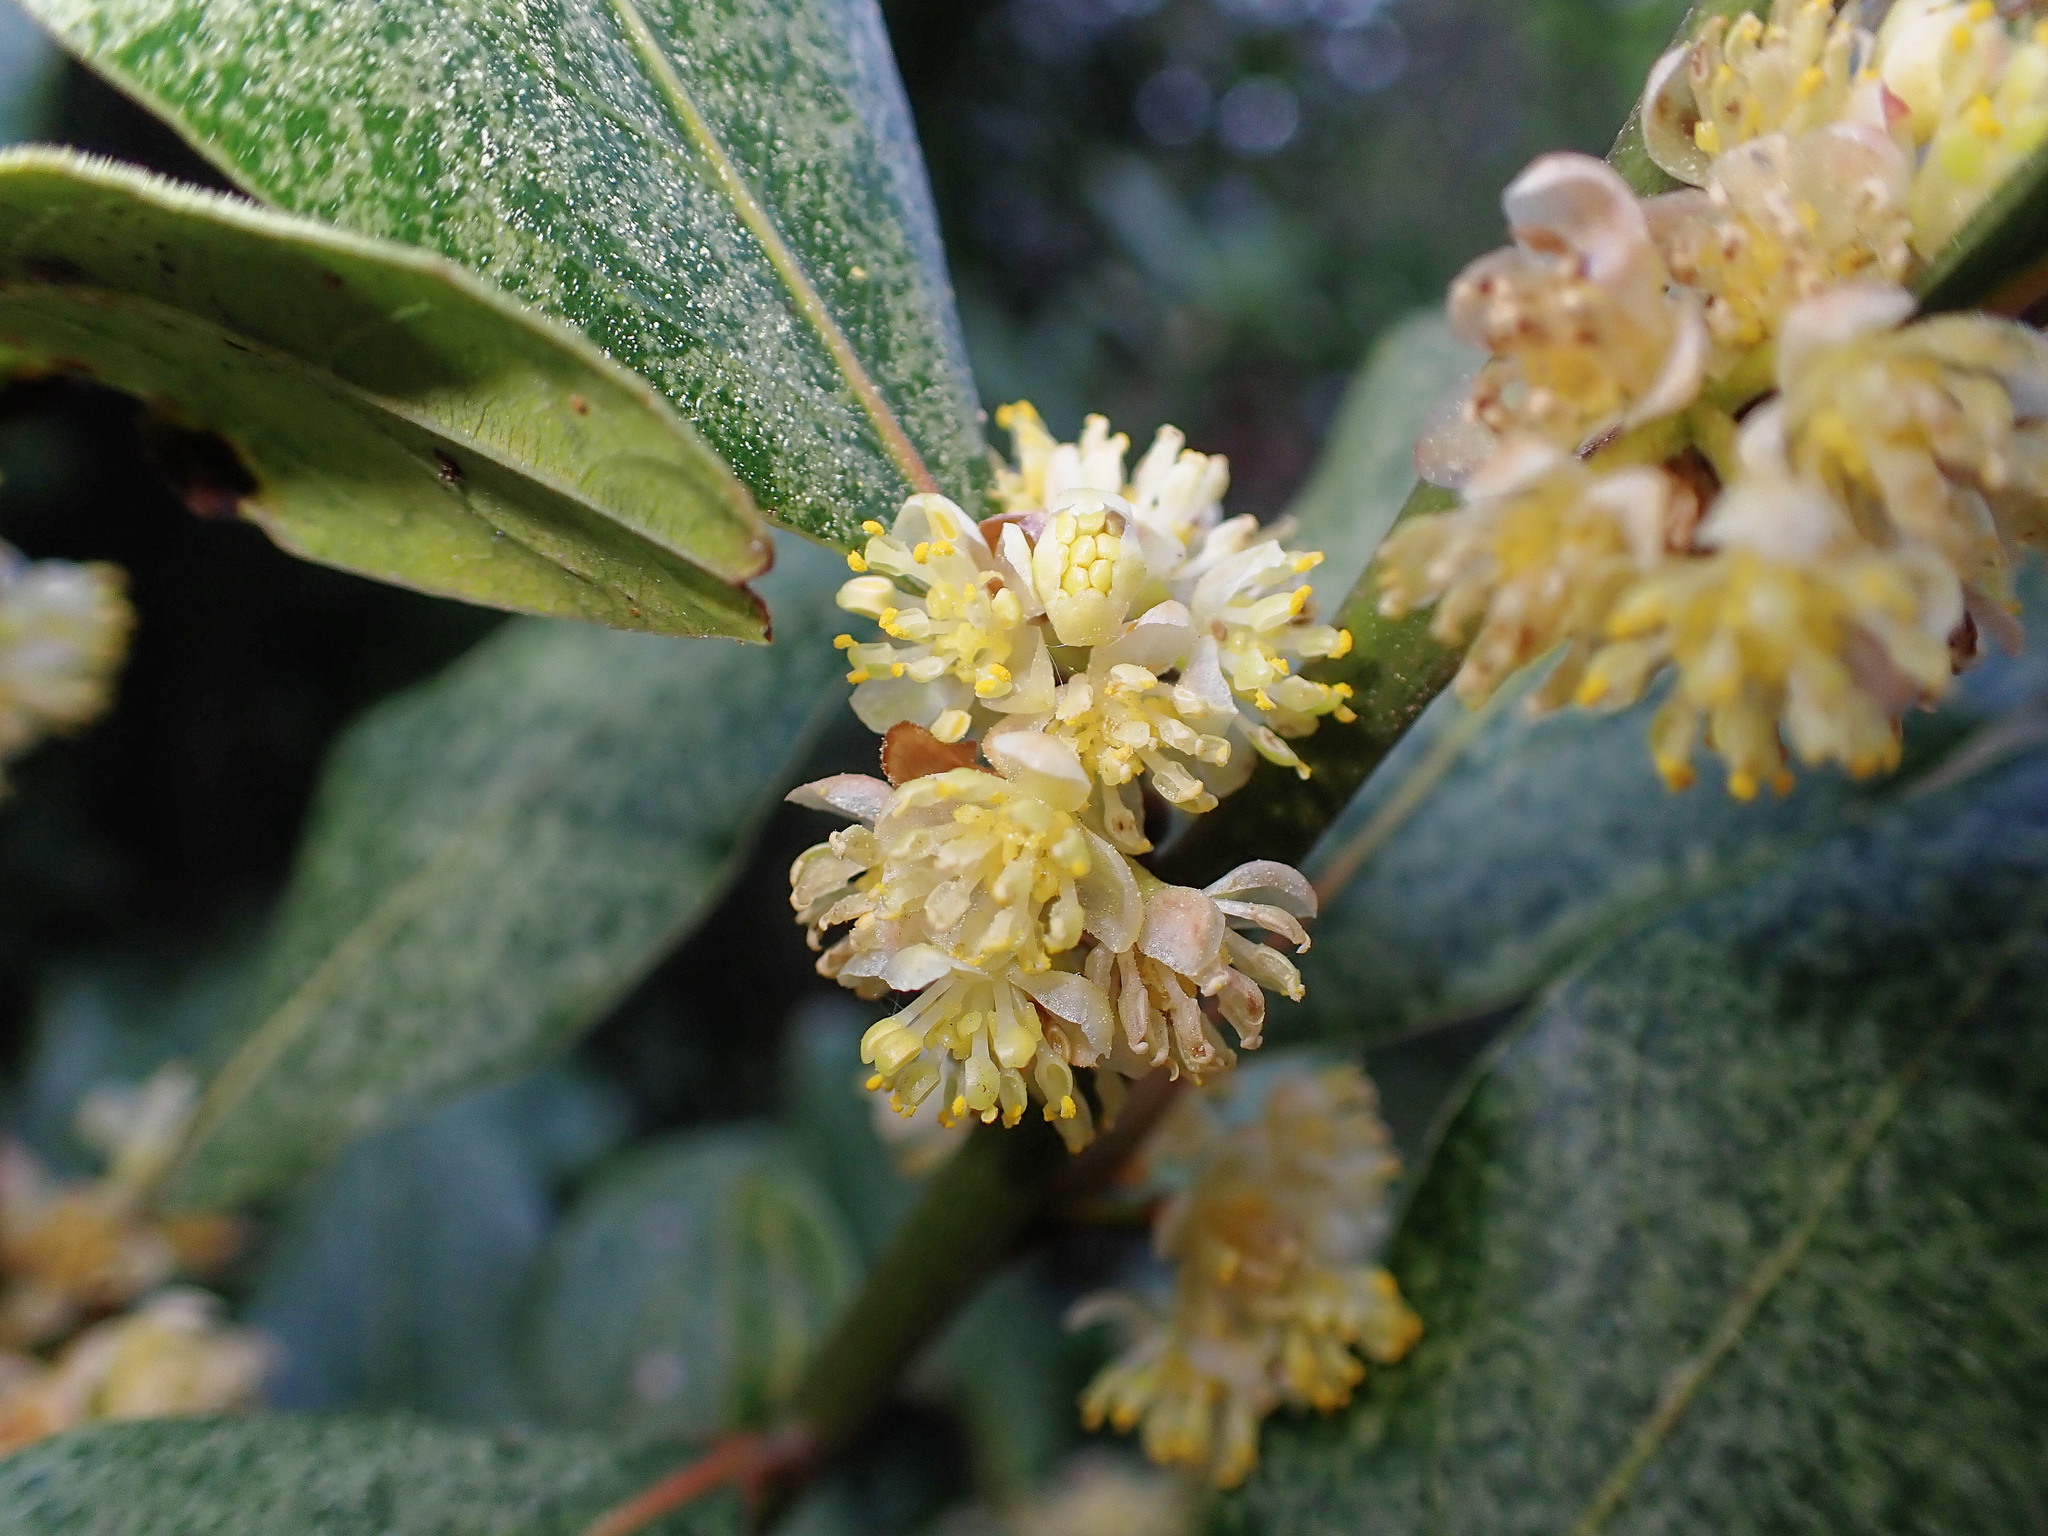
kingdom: Plantae
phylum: Tracheophyta
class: Magnoliopsida
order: Laurales
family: Lauraceae
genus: Laurus
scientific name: Laurus nobilis
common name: Bay
